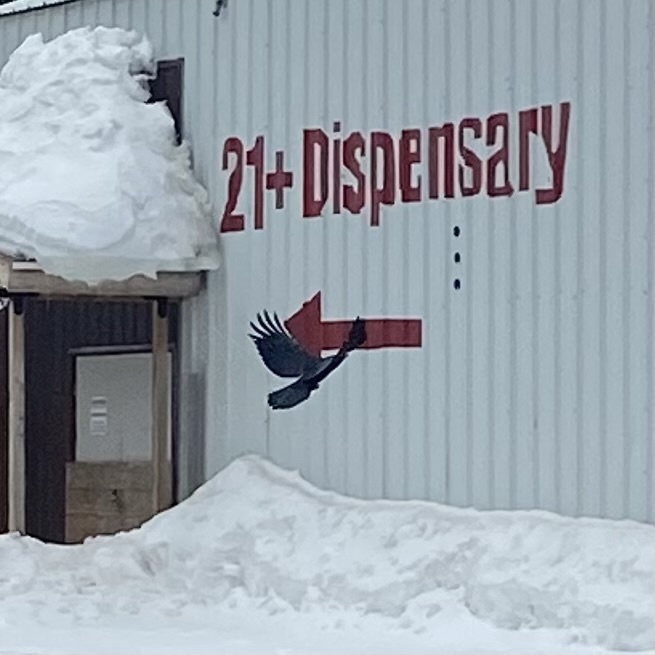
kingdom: Animalia
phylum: Chordata
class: Aves
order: Passeriformes
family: Corvidae
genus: Corvus
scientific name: Corvus brachyrhynchos
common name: American crow
